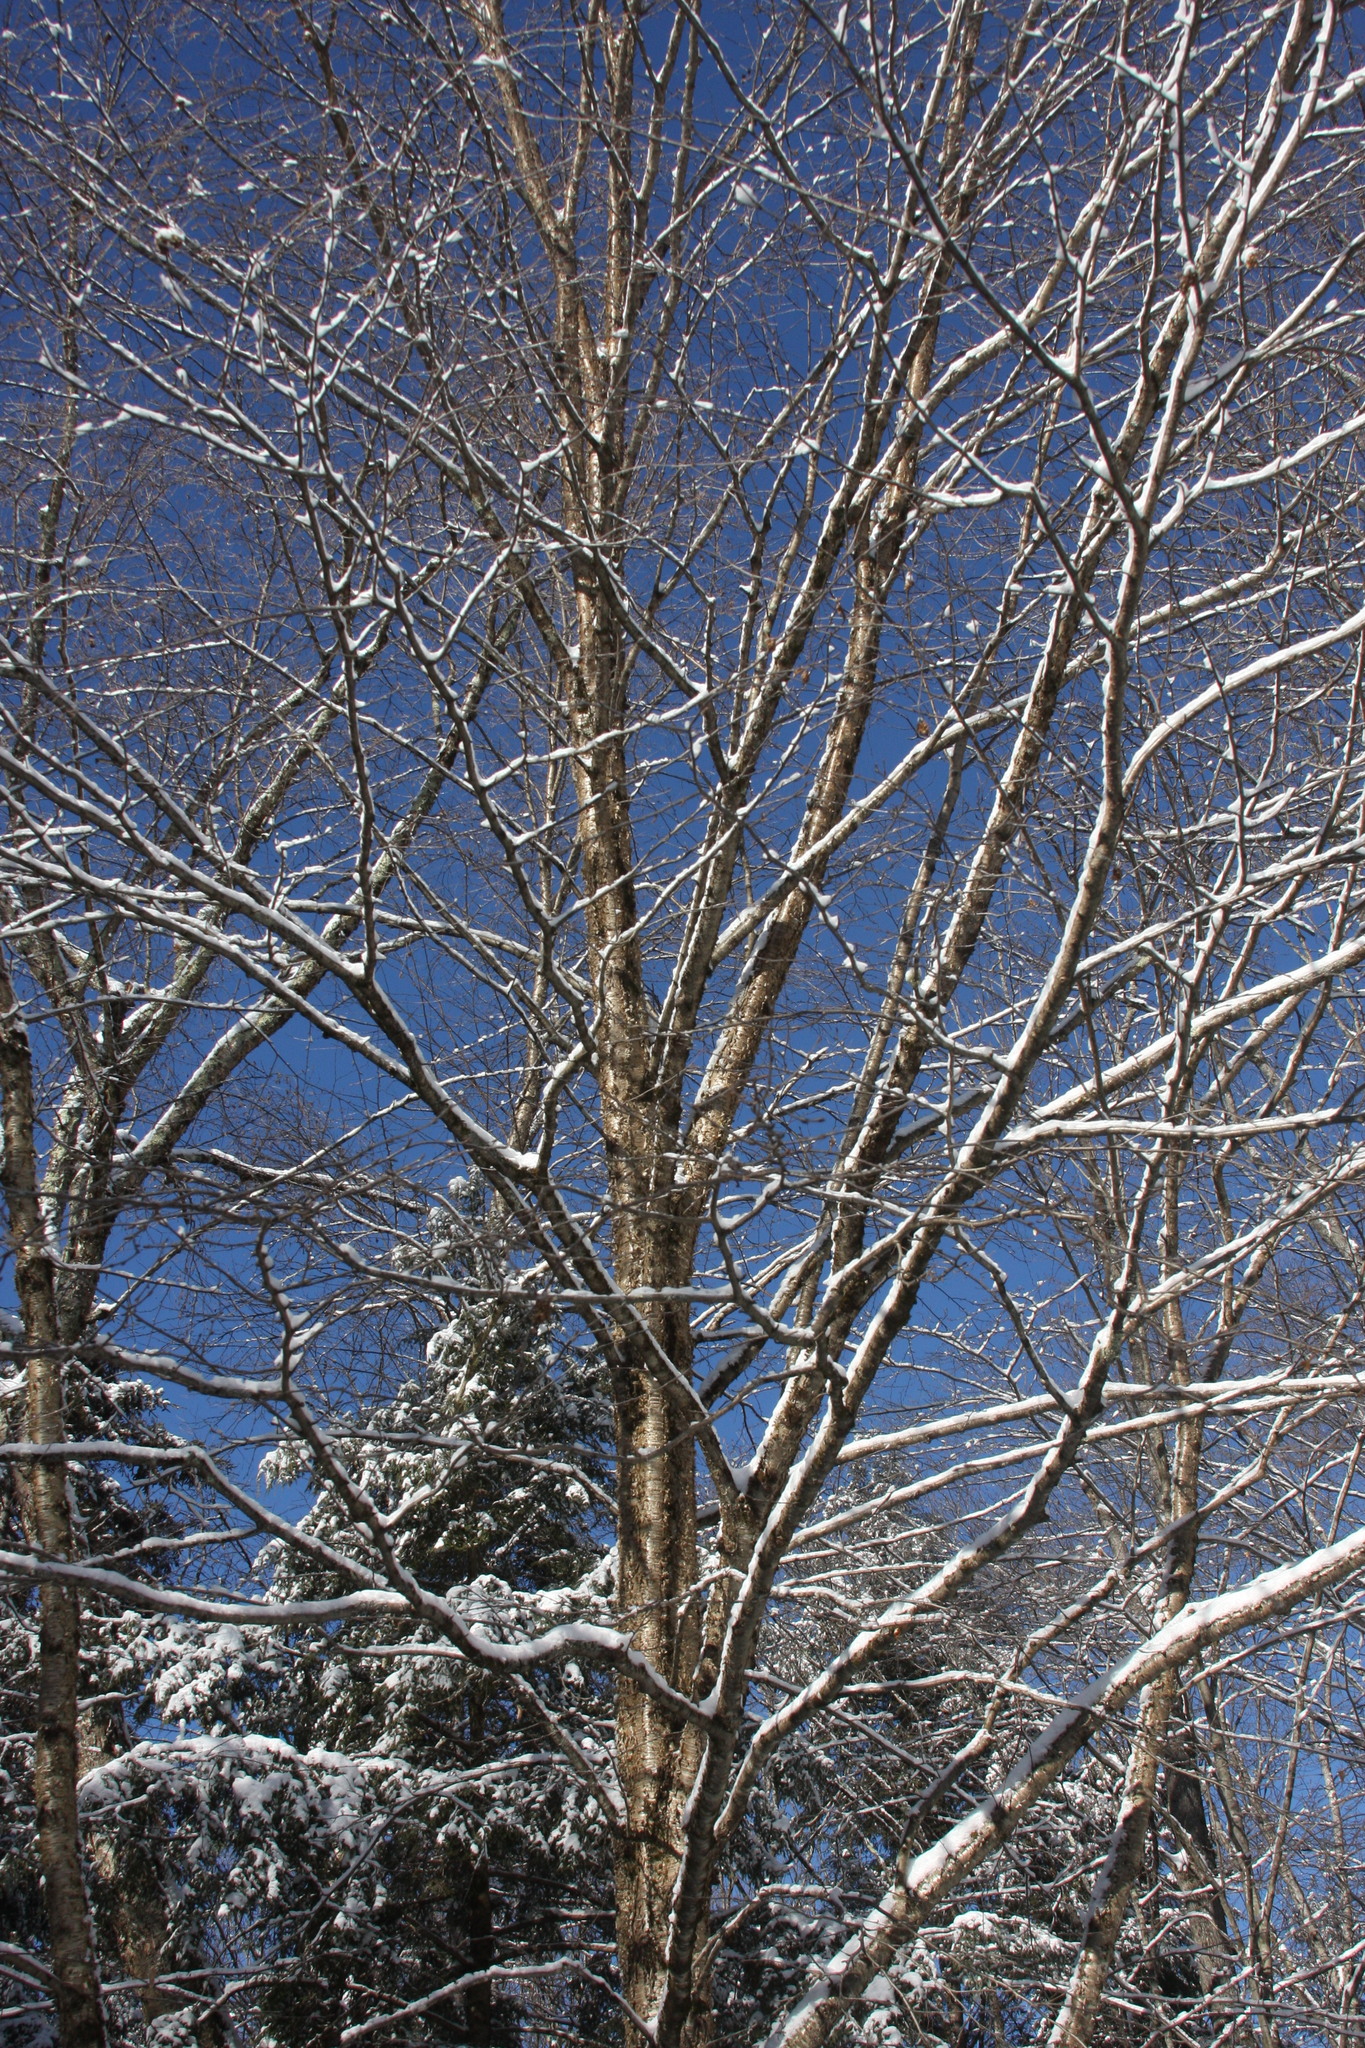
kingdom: Plantae
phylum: Tracheophyta
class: Magnoliopsida
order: Fagales
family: Betulaceae
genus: Betula
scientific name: Betula alleghaniensis
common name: Yellow birch
